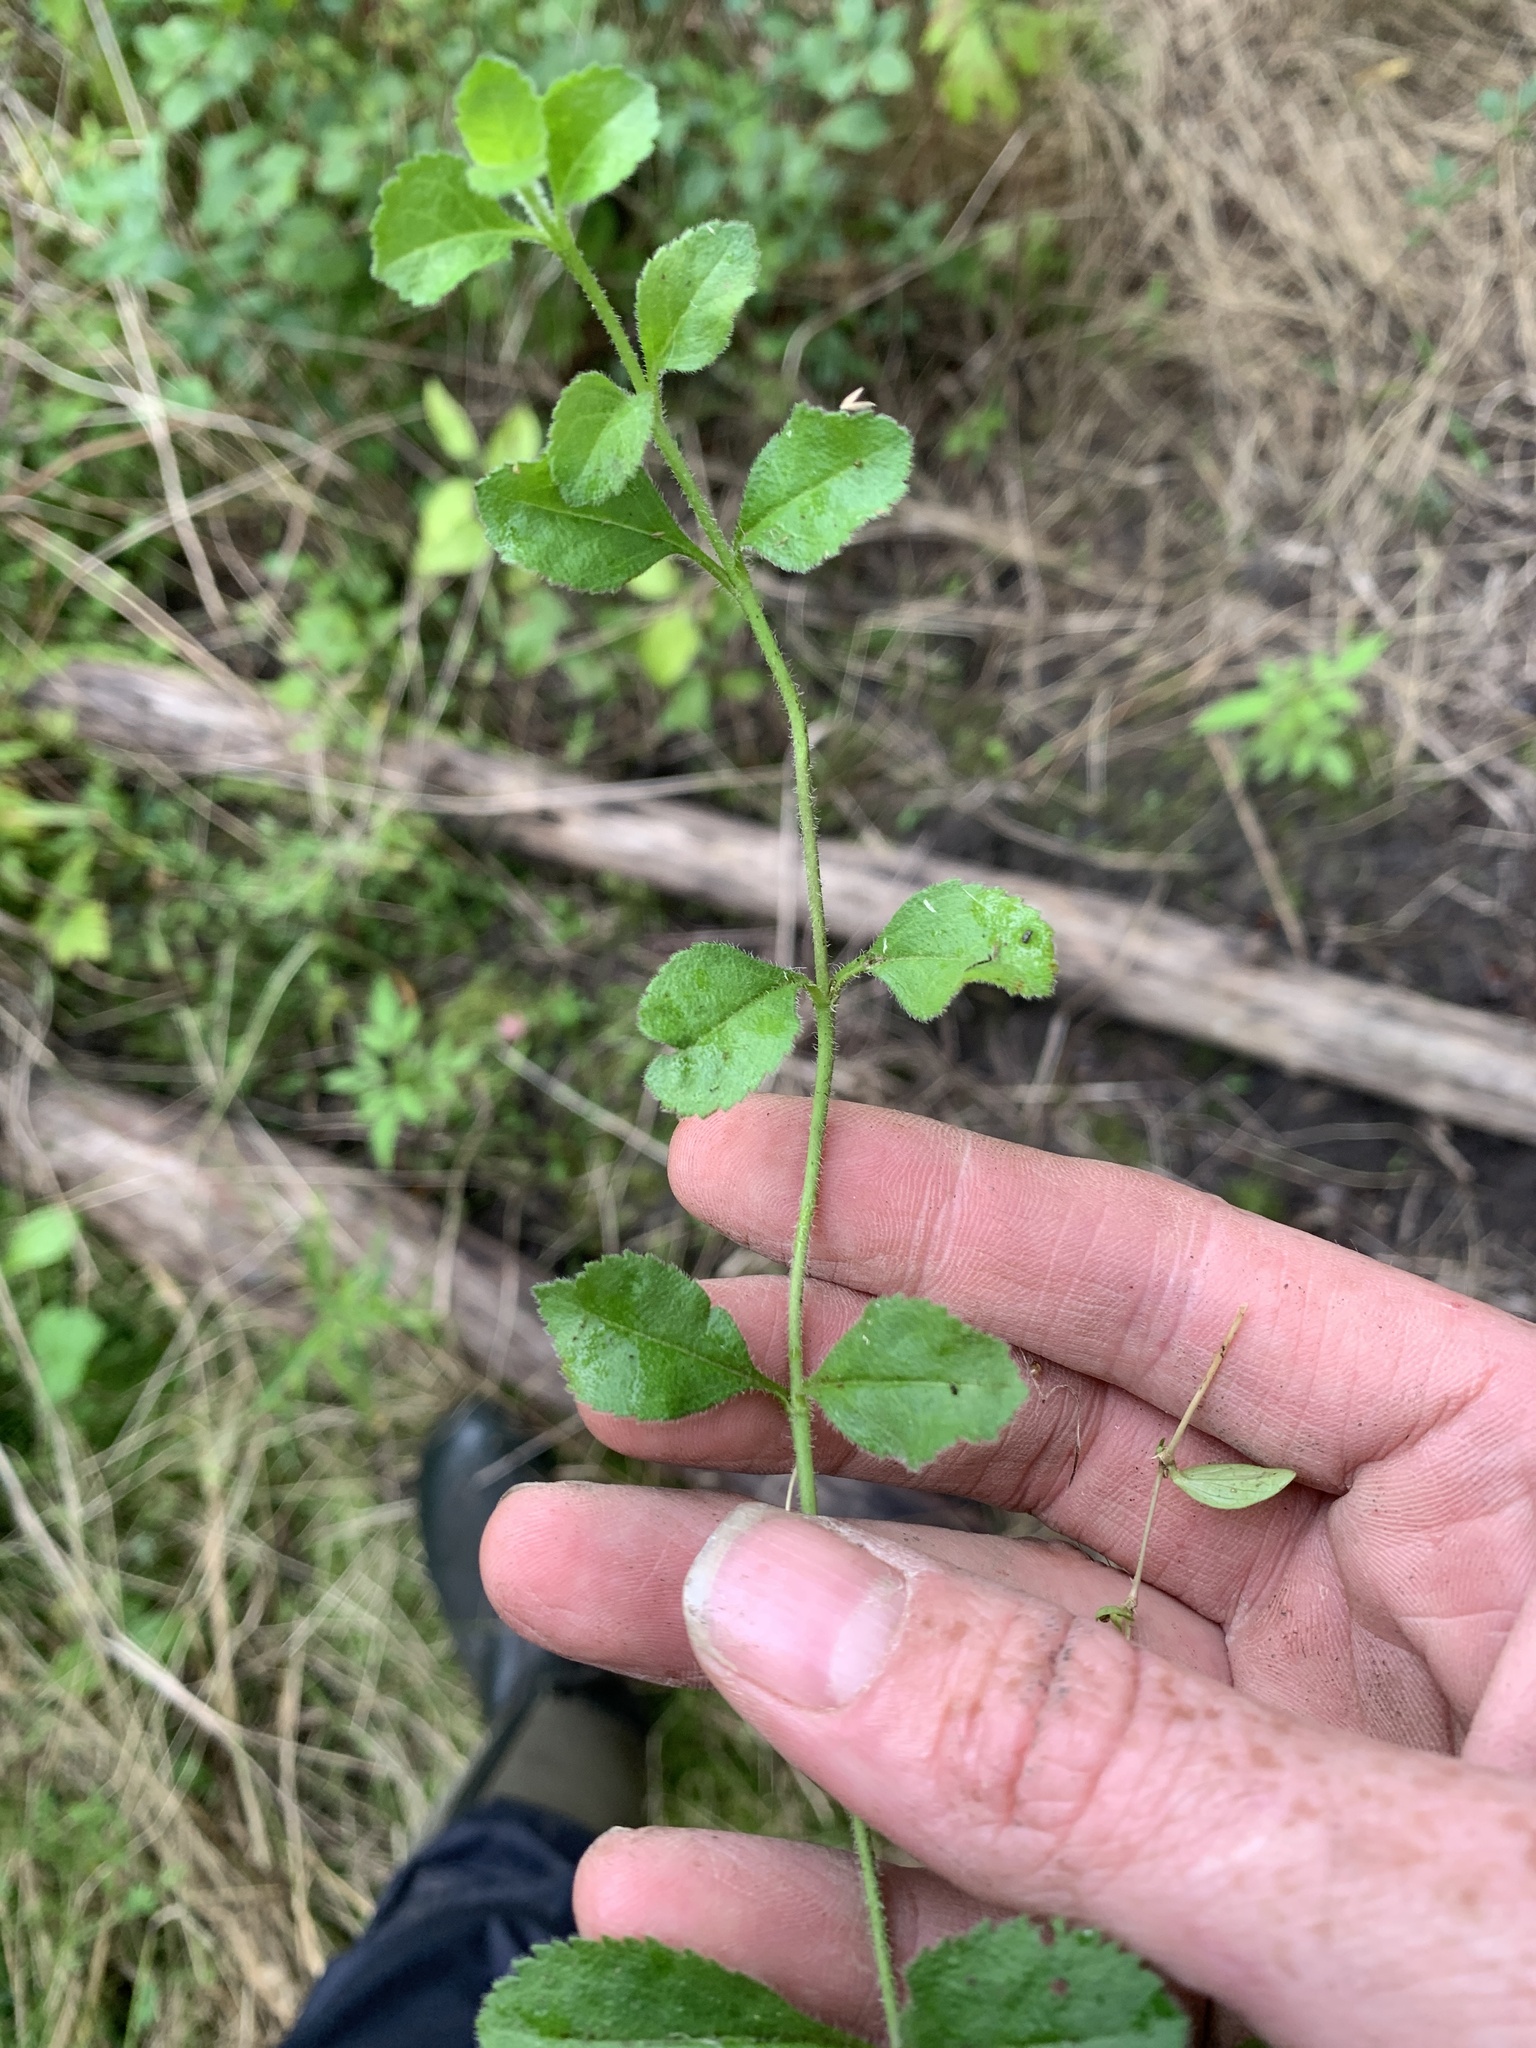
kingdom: Plantae
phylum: Tracheophyta
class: Magnoliopsida
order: Lamiales
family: Plantaginaceae
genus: Veronica
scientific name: Veronica officinalis
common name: Common speedwell
